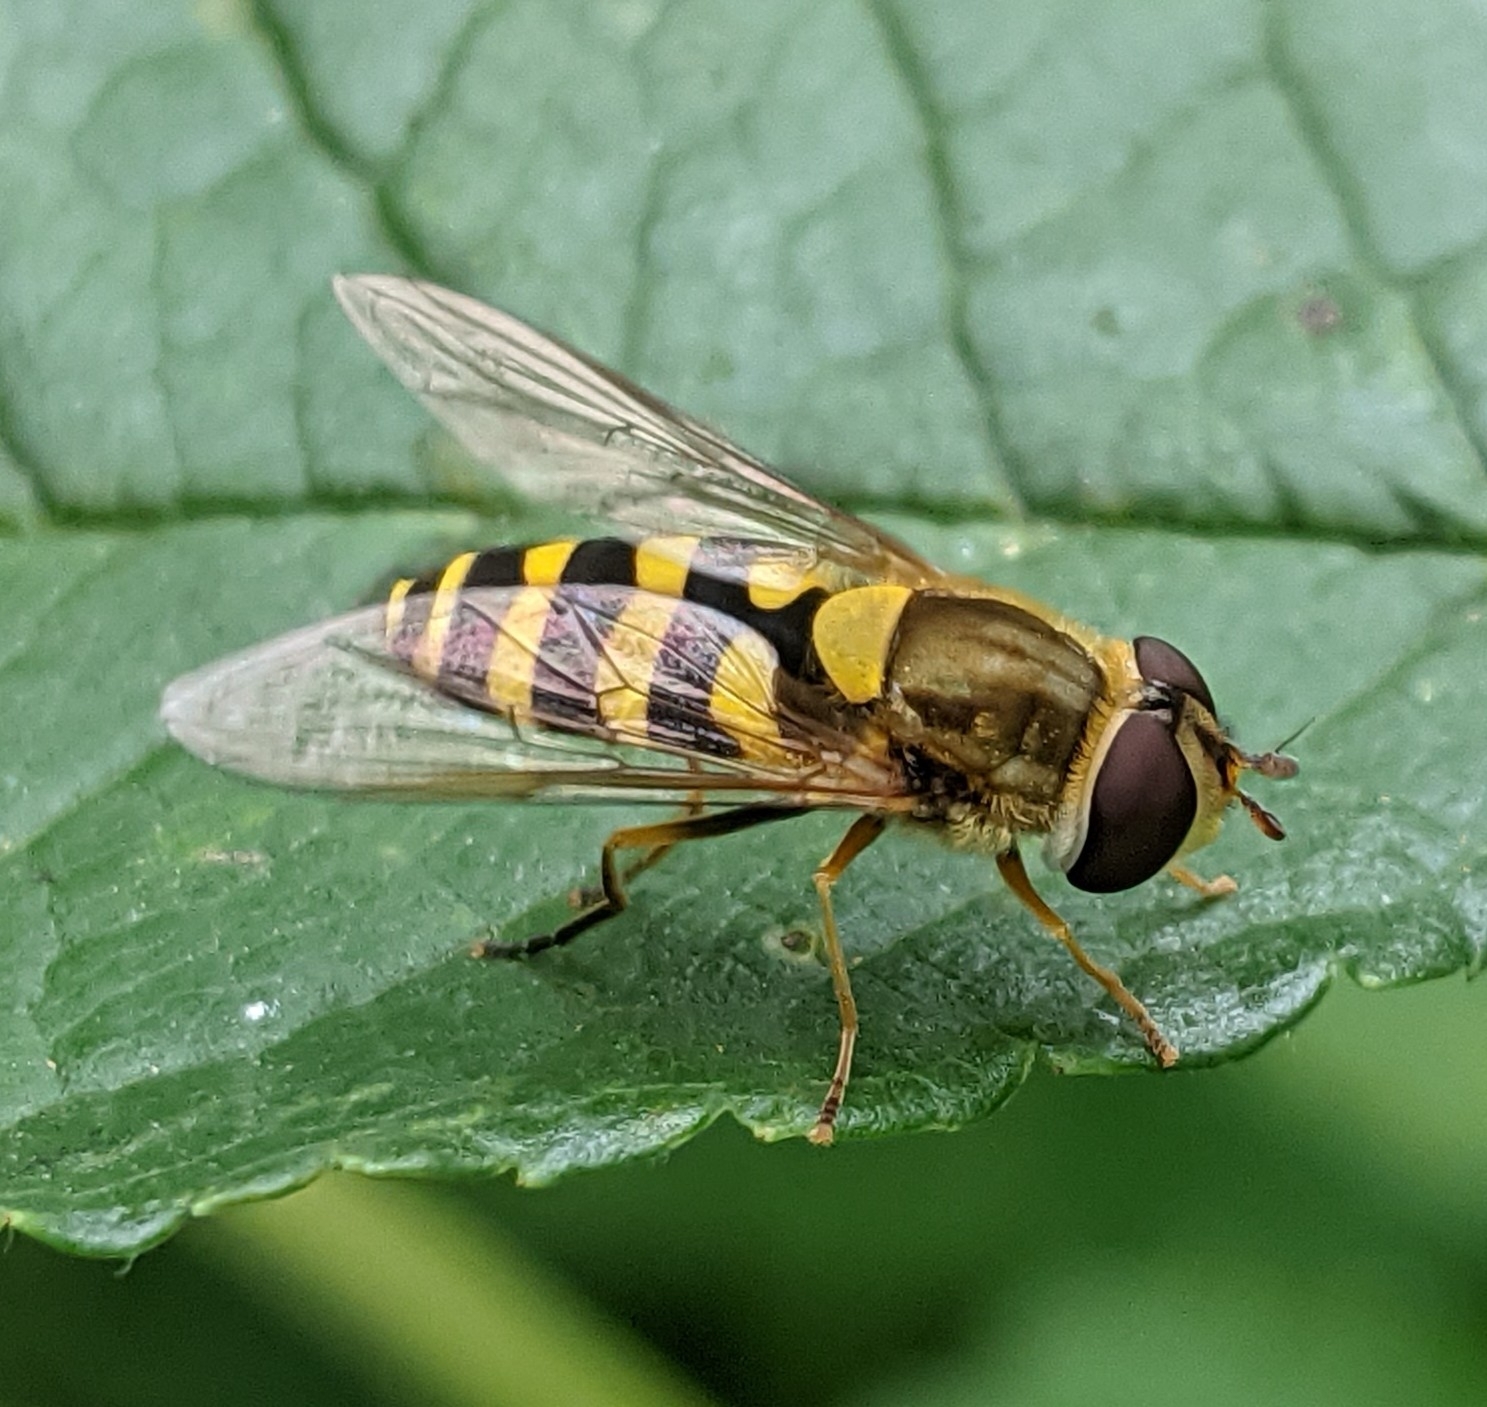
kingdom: Animalia
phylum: Arthropoda
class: Insecta
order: Diptera
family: Syrphidae
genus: Syrphus
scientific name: Syrphus
